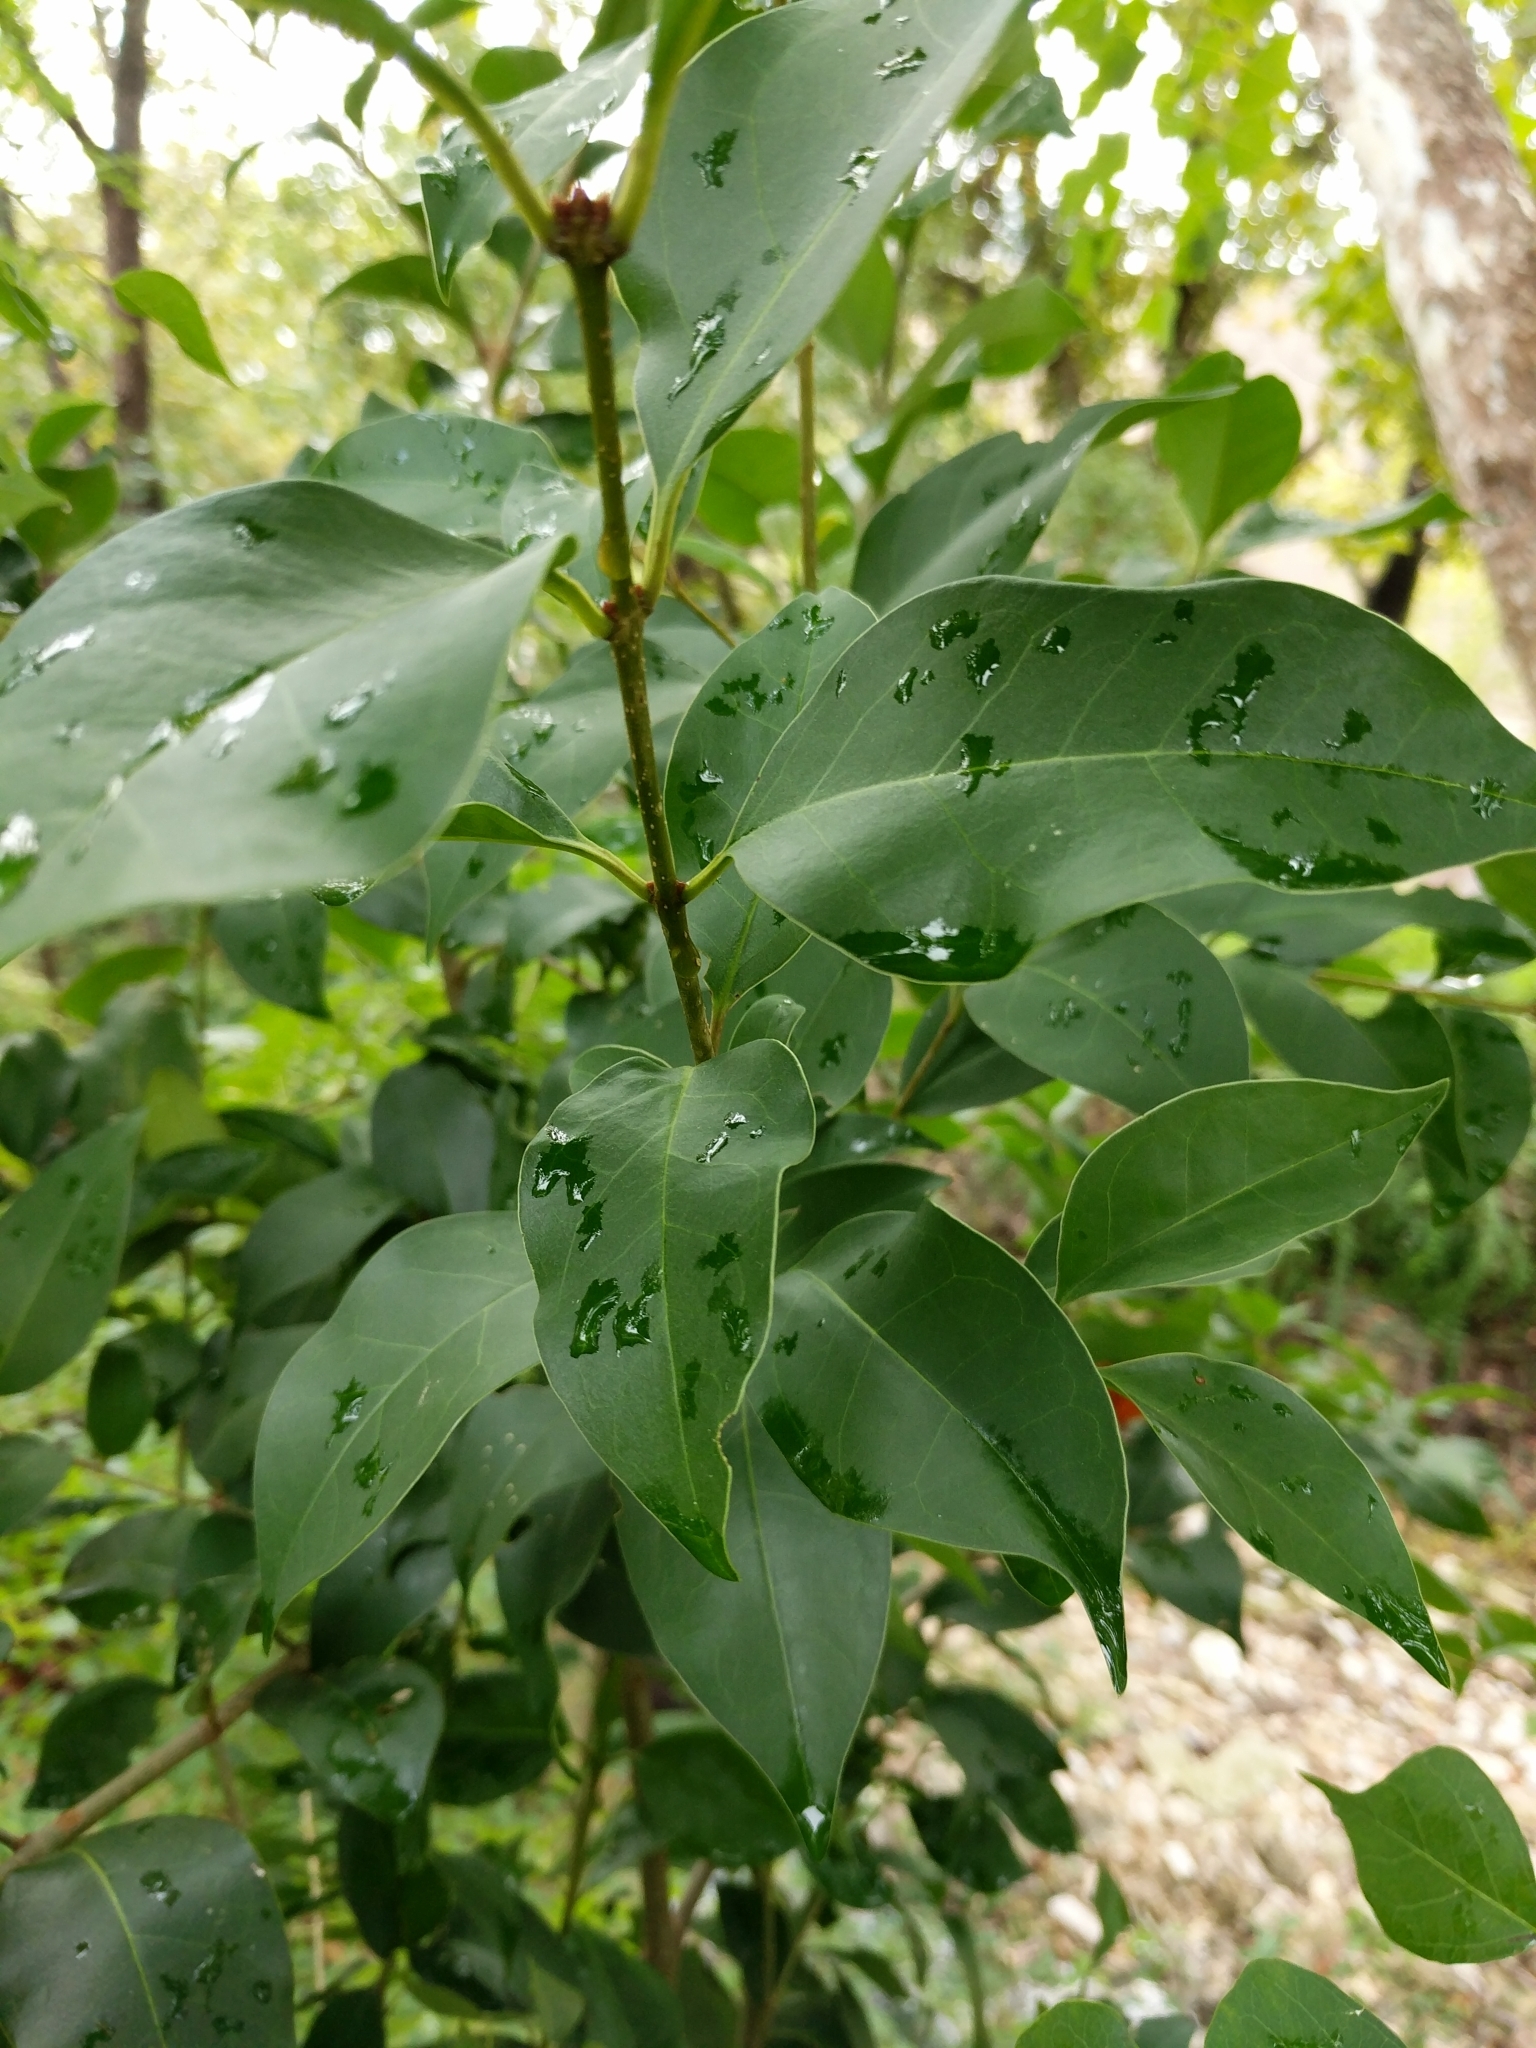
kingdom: Plantae
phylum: Tracheophyta
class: Magnoliopsida
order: Lamiales
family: Oleaceae
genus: Ligustrum
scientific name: Ligustrum lucidum
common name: Glossy privet
